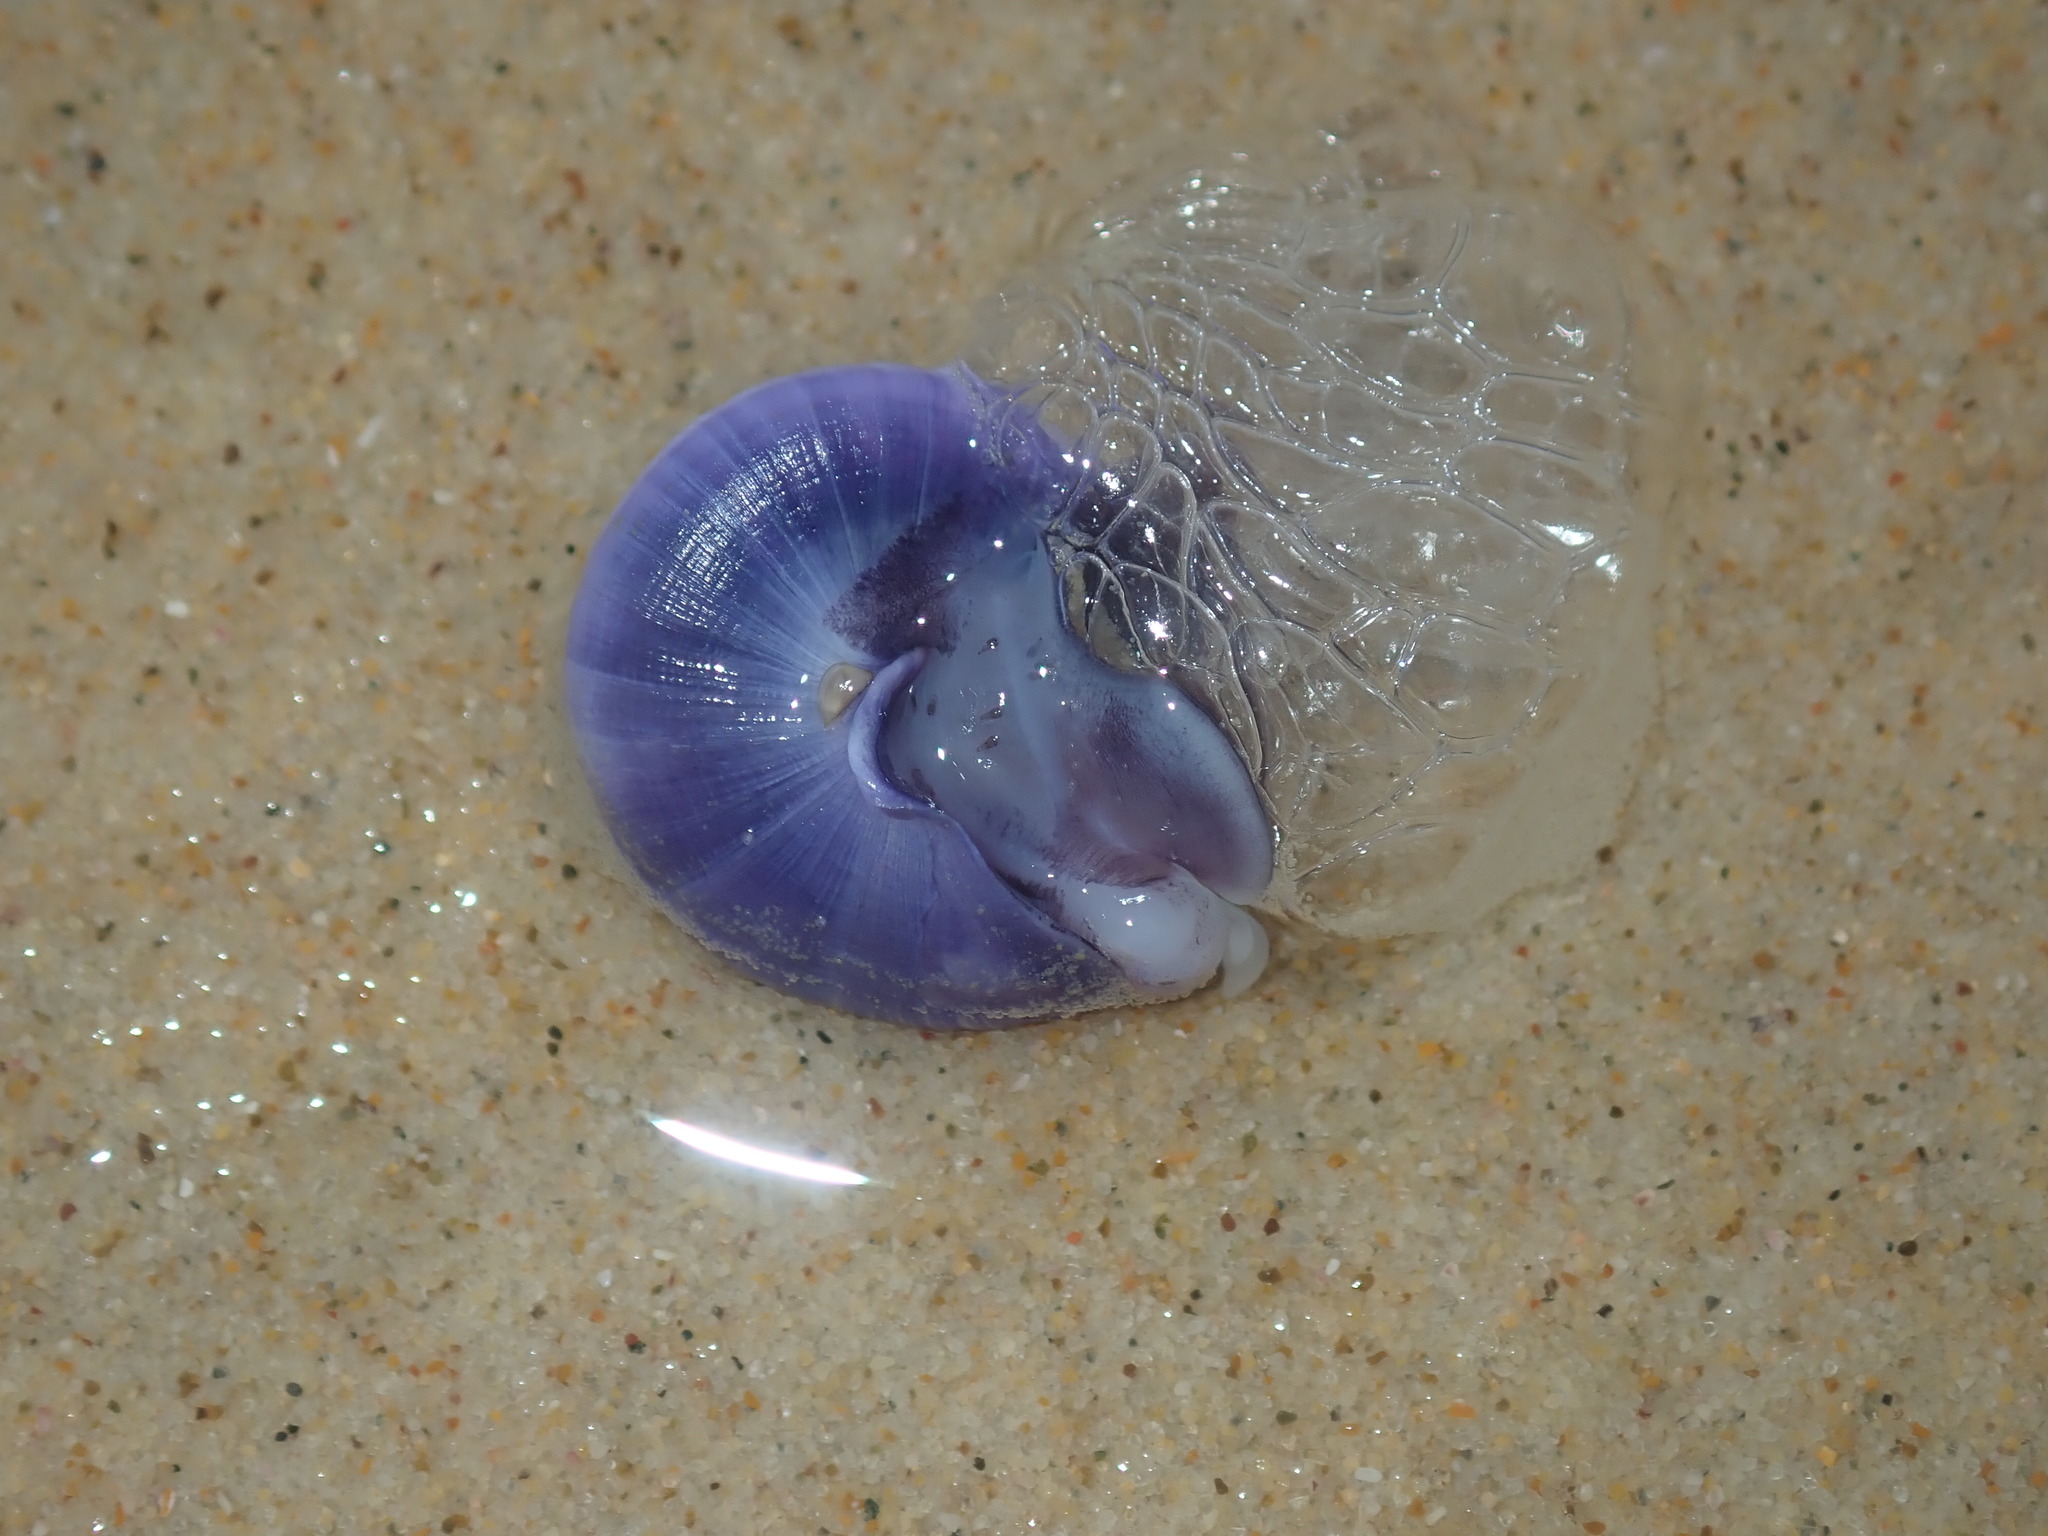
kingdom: Animalia
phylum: Mollusca
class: Gastropoda
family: Epitoniidae
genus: Janthina
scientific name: Janthina janthina
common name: Common janthina
